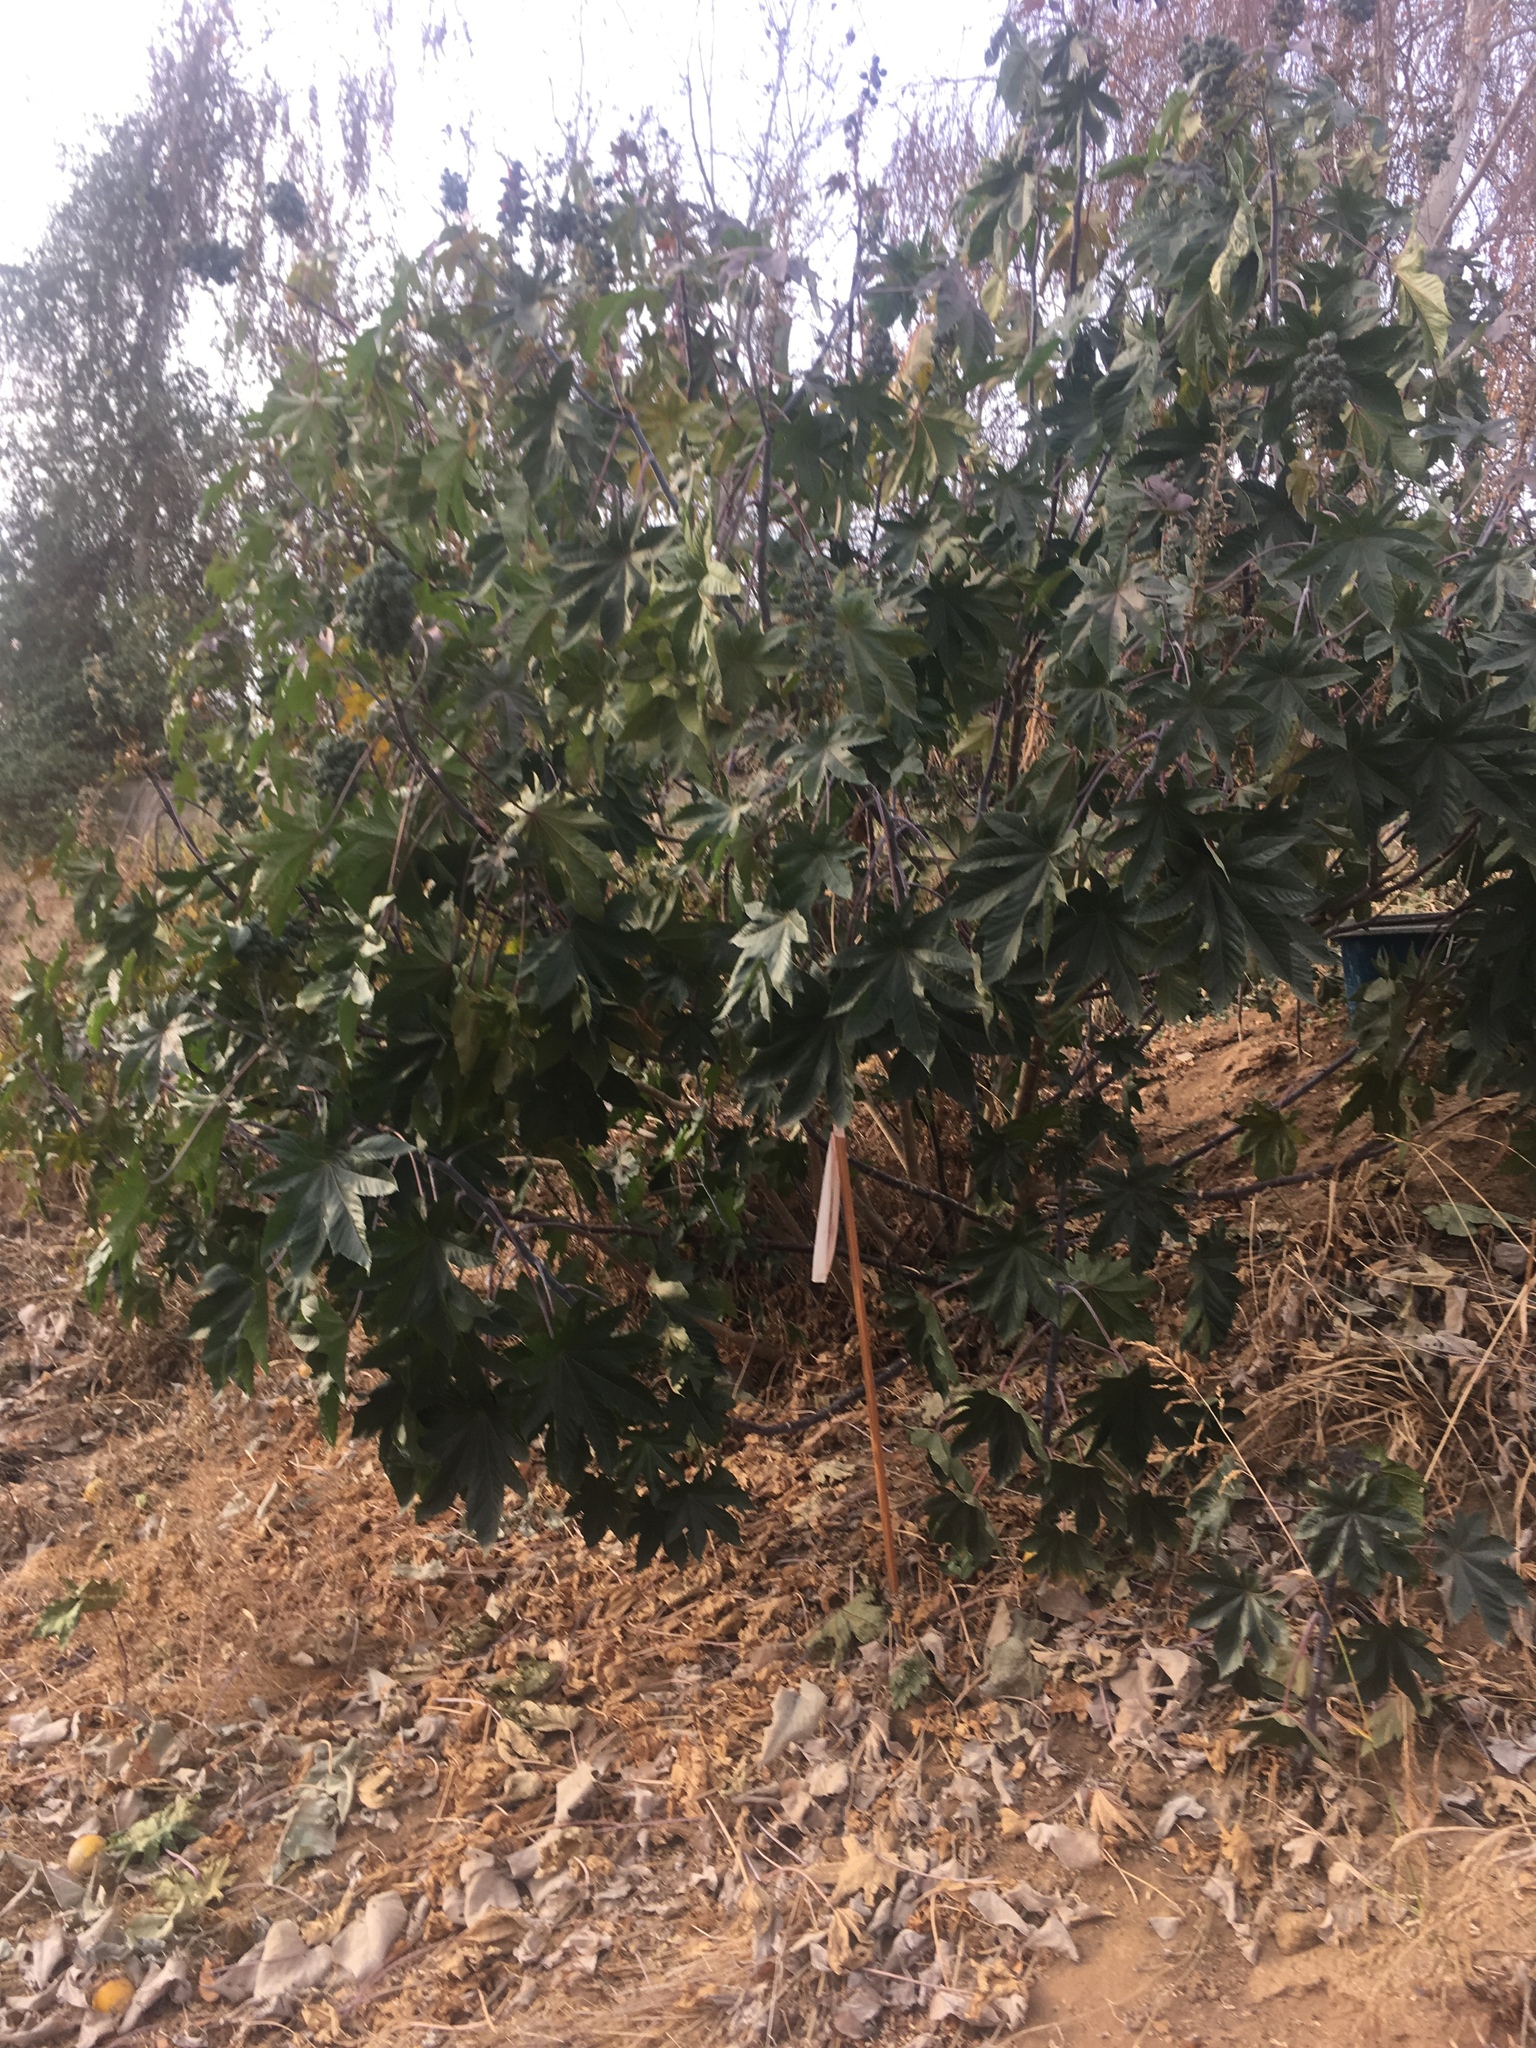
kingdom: Plantae
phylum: Tracheophyta
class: Magnoliopsida
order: Malpighiales
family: Euphorbiaceae
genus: Ricinus
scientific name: Ricinus communis
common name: Castor-oil-plant
